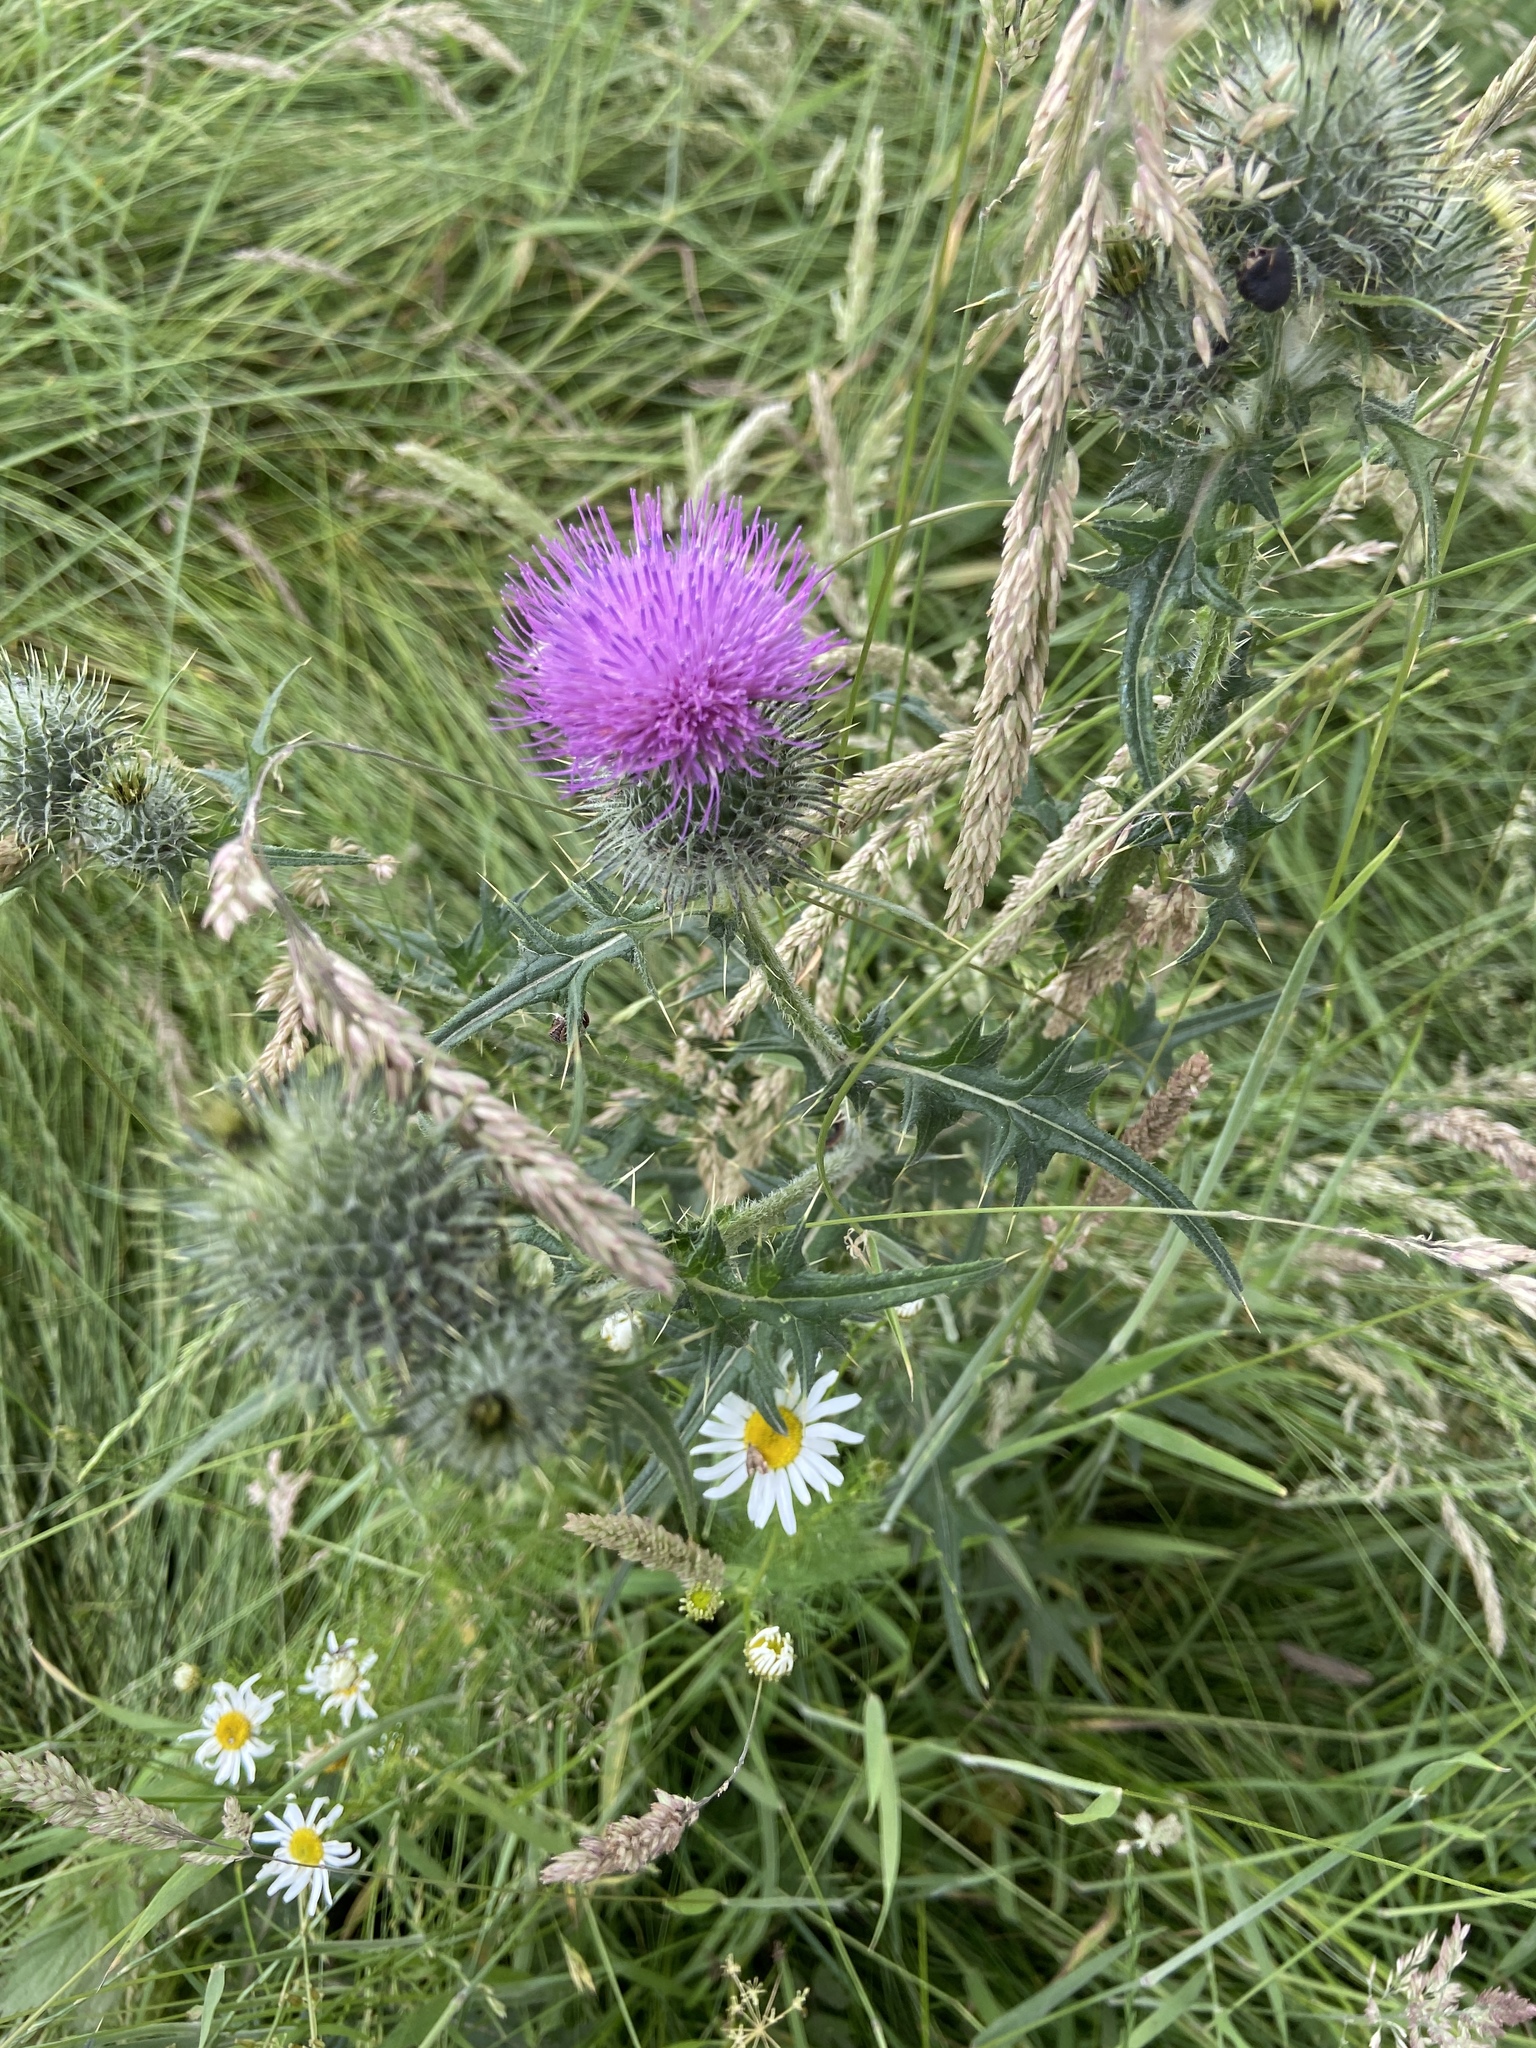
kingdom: Plantae
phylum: Tracheophyta
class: Magnoliopsida
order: Asterales
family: Asteraceae
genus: Cirsium
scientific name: Cirsium vulgare
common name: Bull thistle
